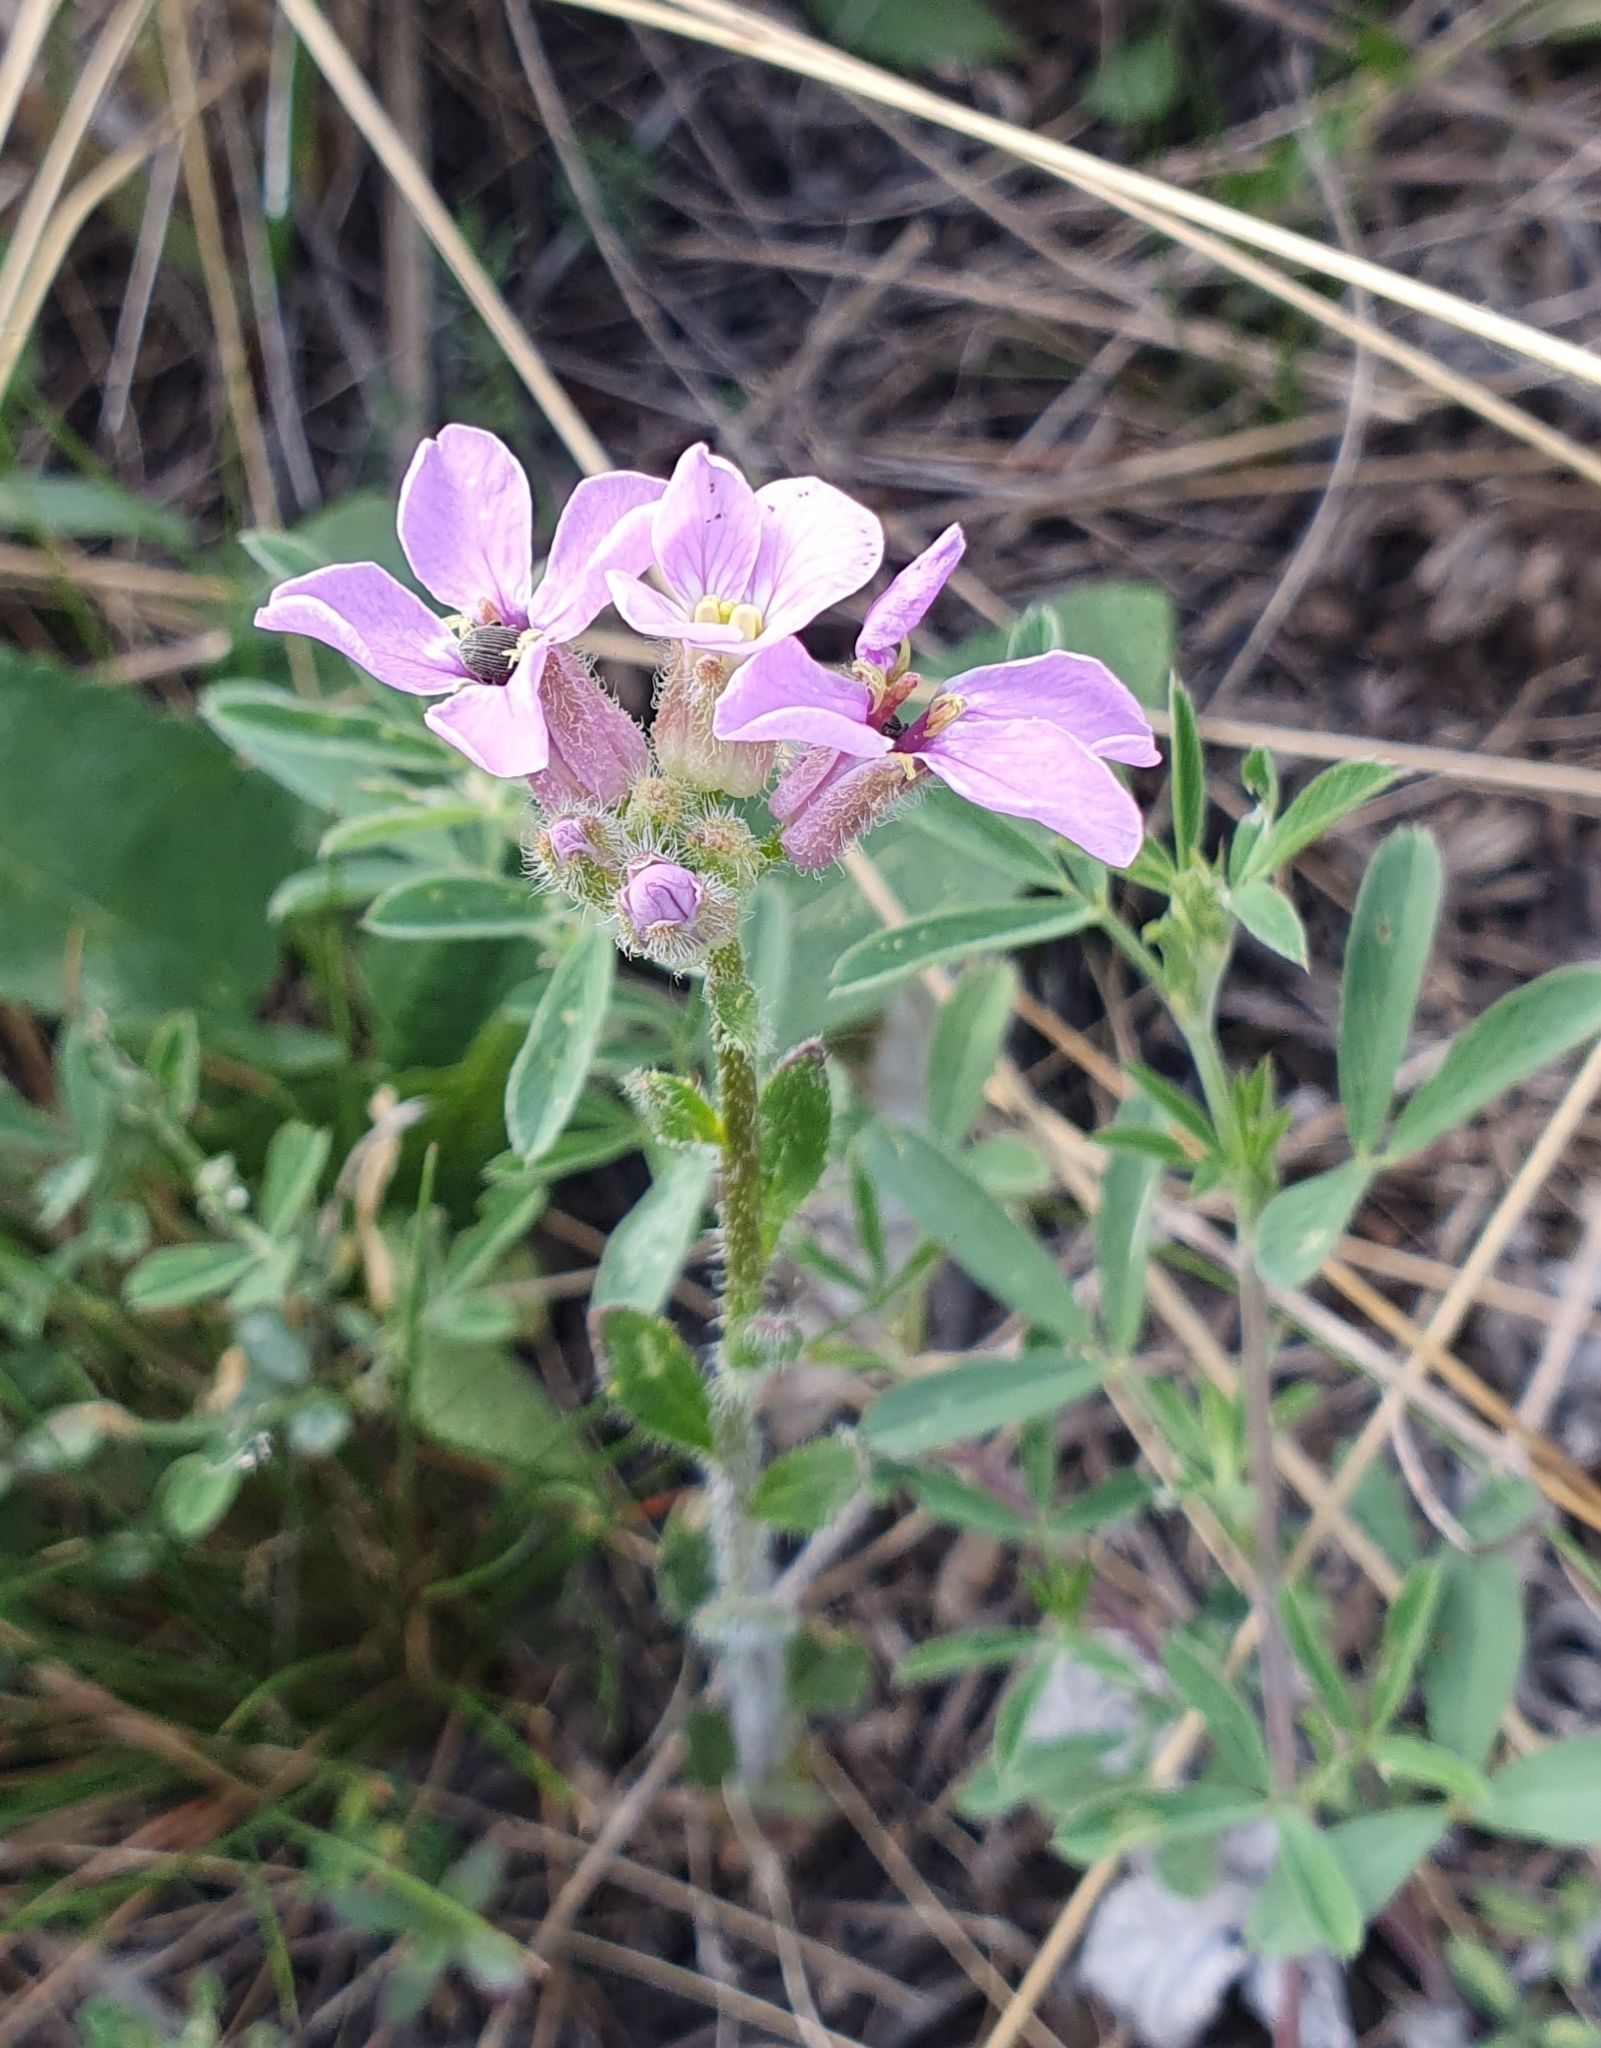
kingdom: Plantae
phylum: Tracheophyta
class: Magnoliopsida
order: Brassicales
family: Brassicaceae
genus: Clausia
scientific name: Clausia aprica
